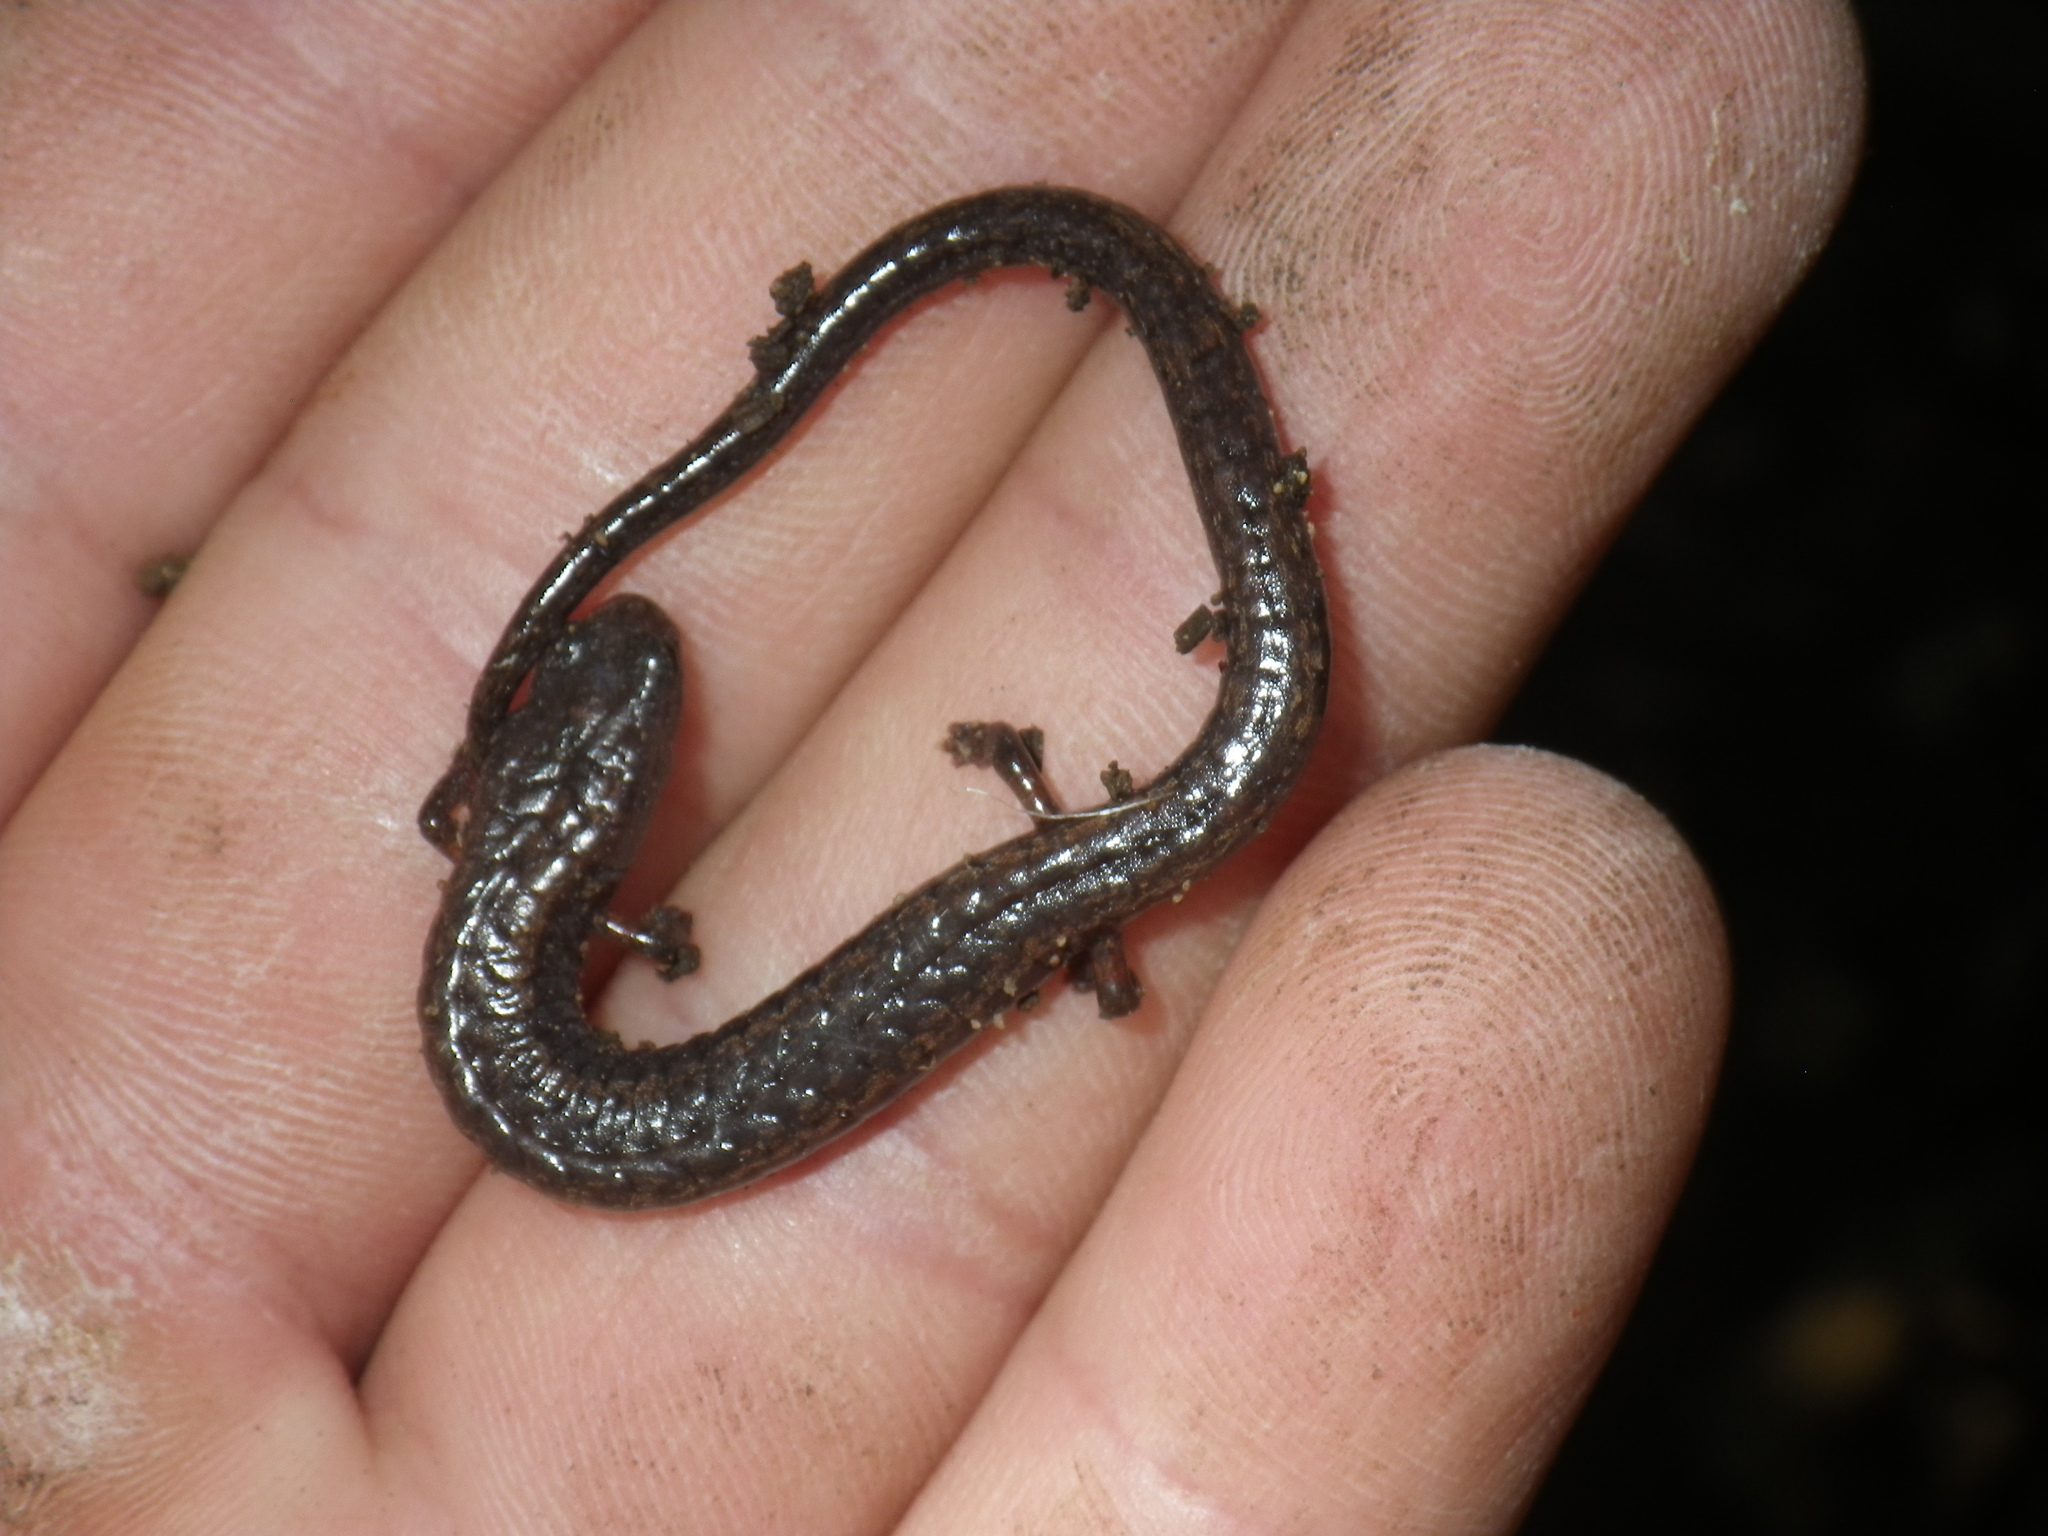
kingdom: Animalia
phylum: Chordata
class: Amphibia
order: Caudata
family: Plethodontidae
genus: Batrachoseps
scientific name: Batrachoseps attenuatus
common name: California slender salamander
